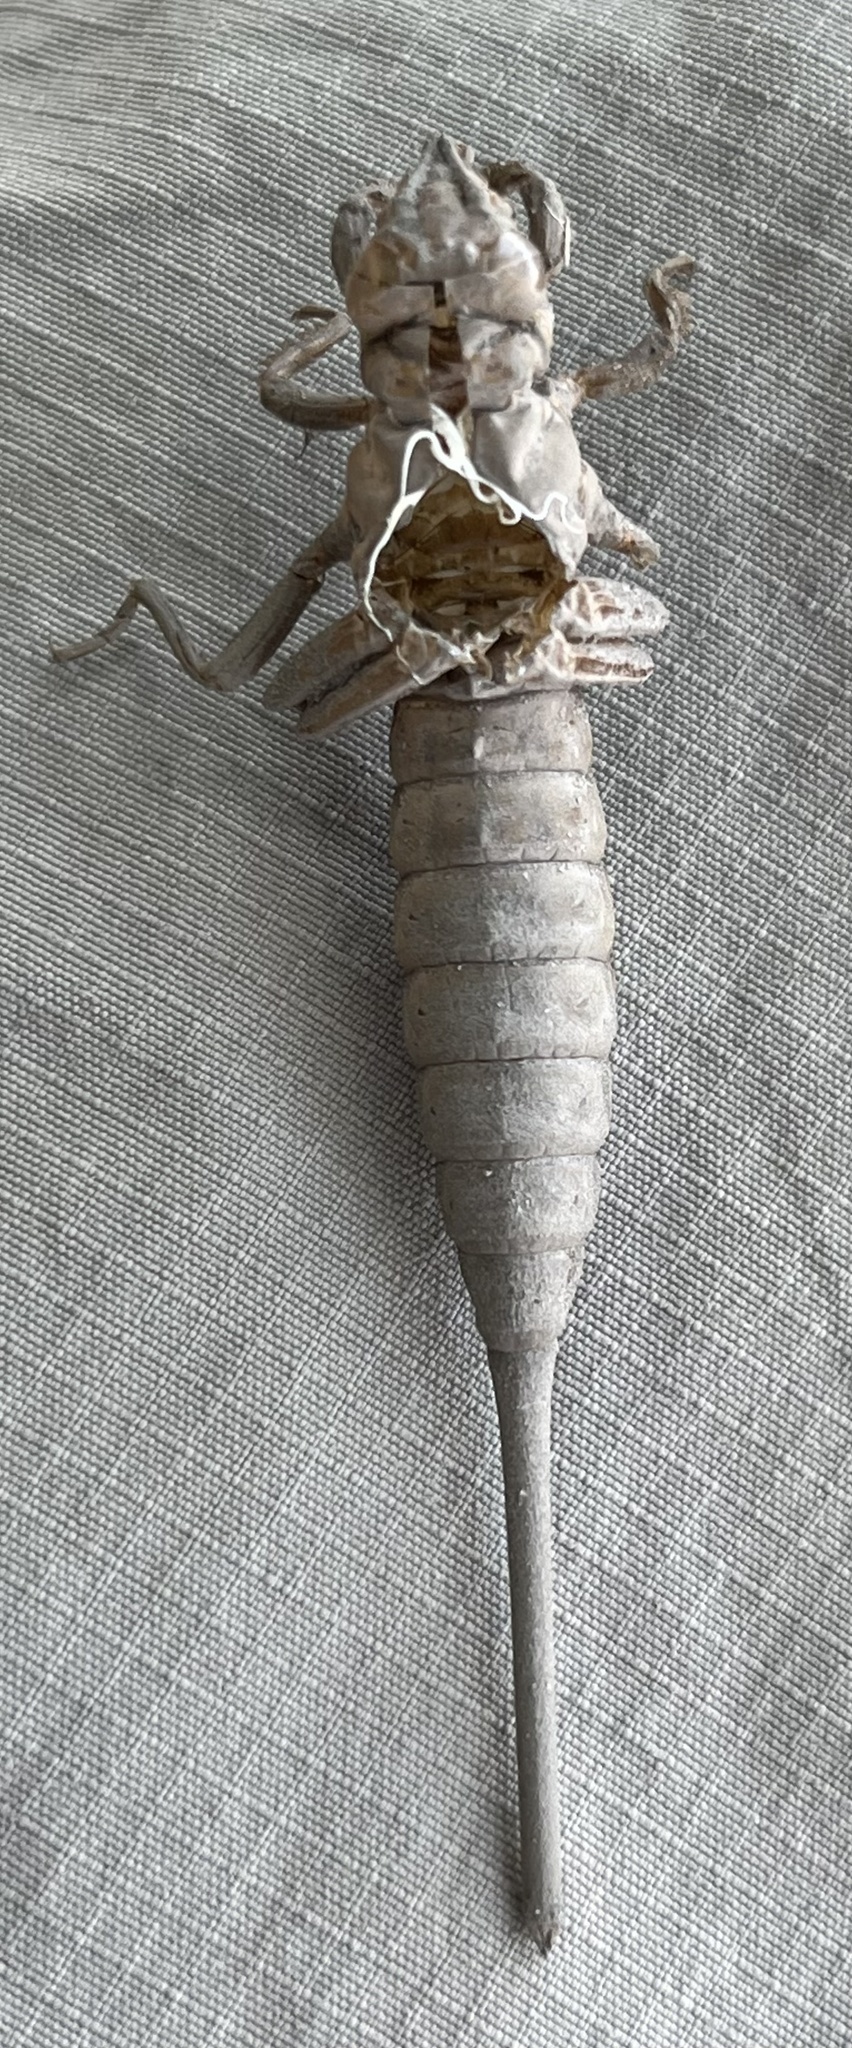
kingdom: Animalia
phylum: Arthropoda
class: Insecta
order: Odonata
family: Gomphidae
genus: Aphylla
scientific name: Aphylla williamsoni
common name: Two-striped forceptail
